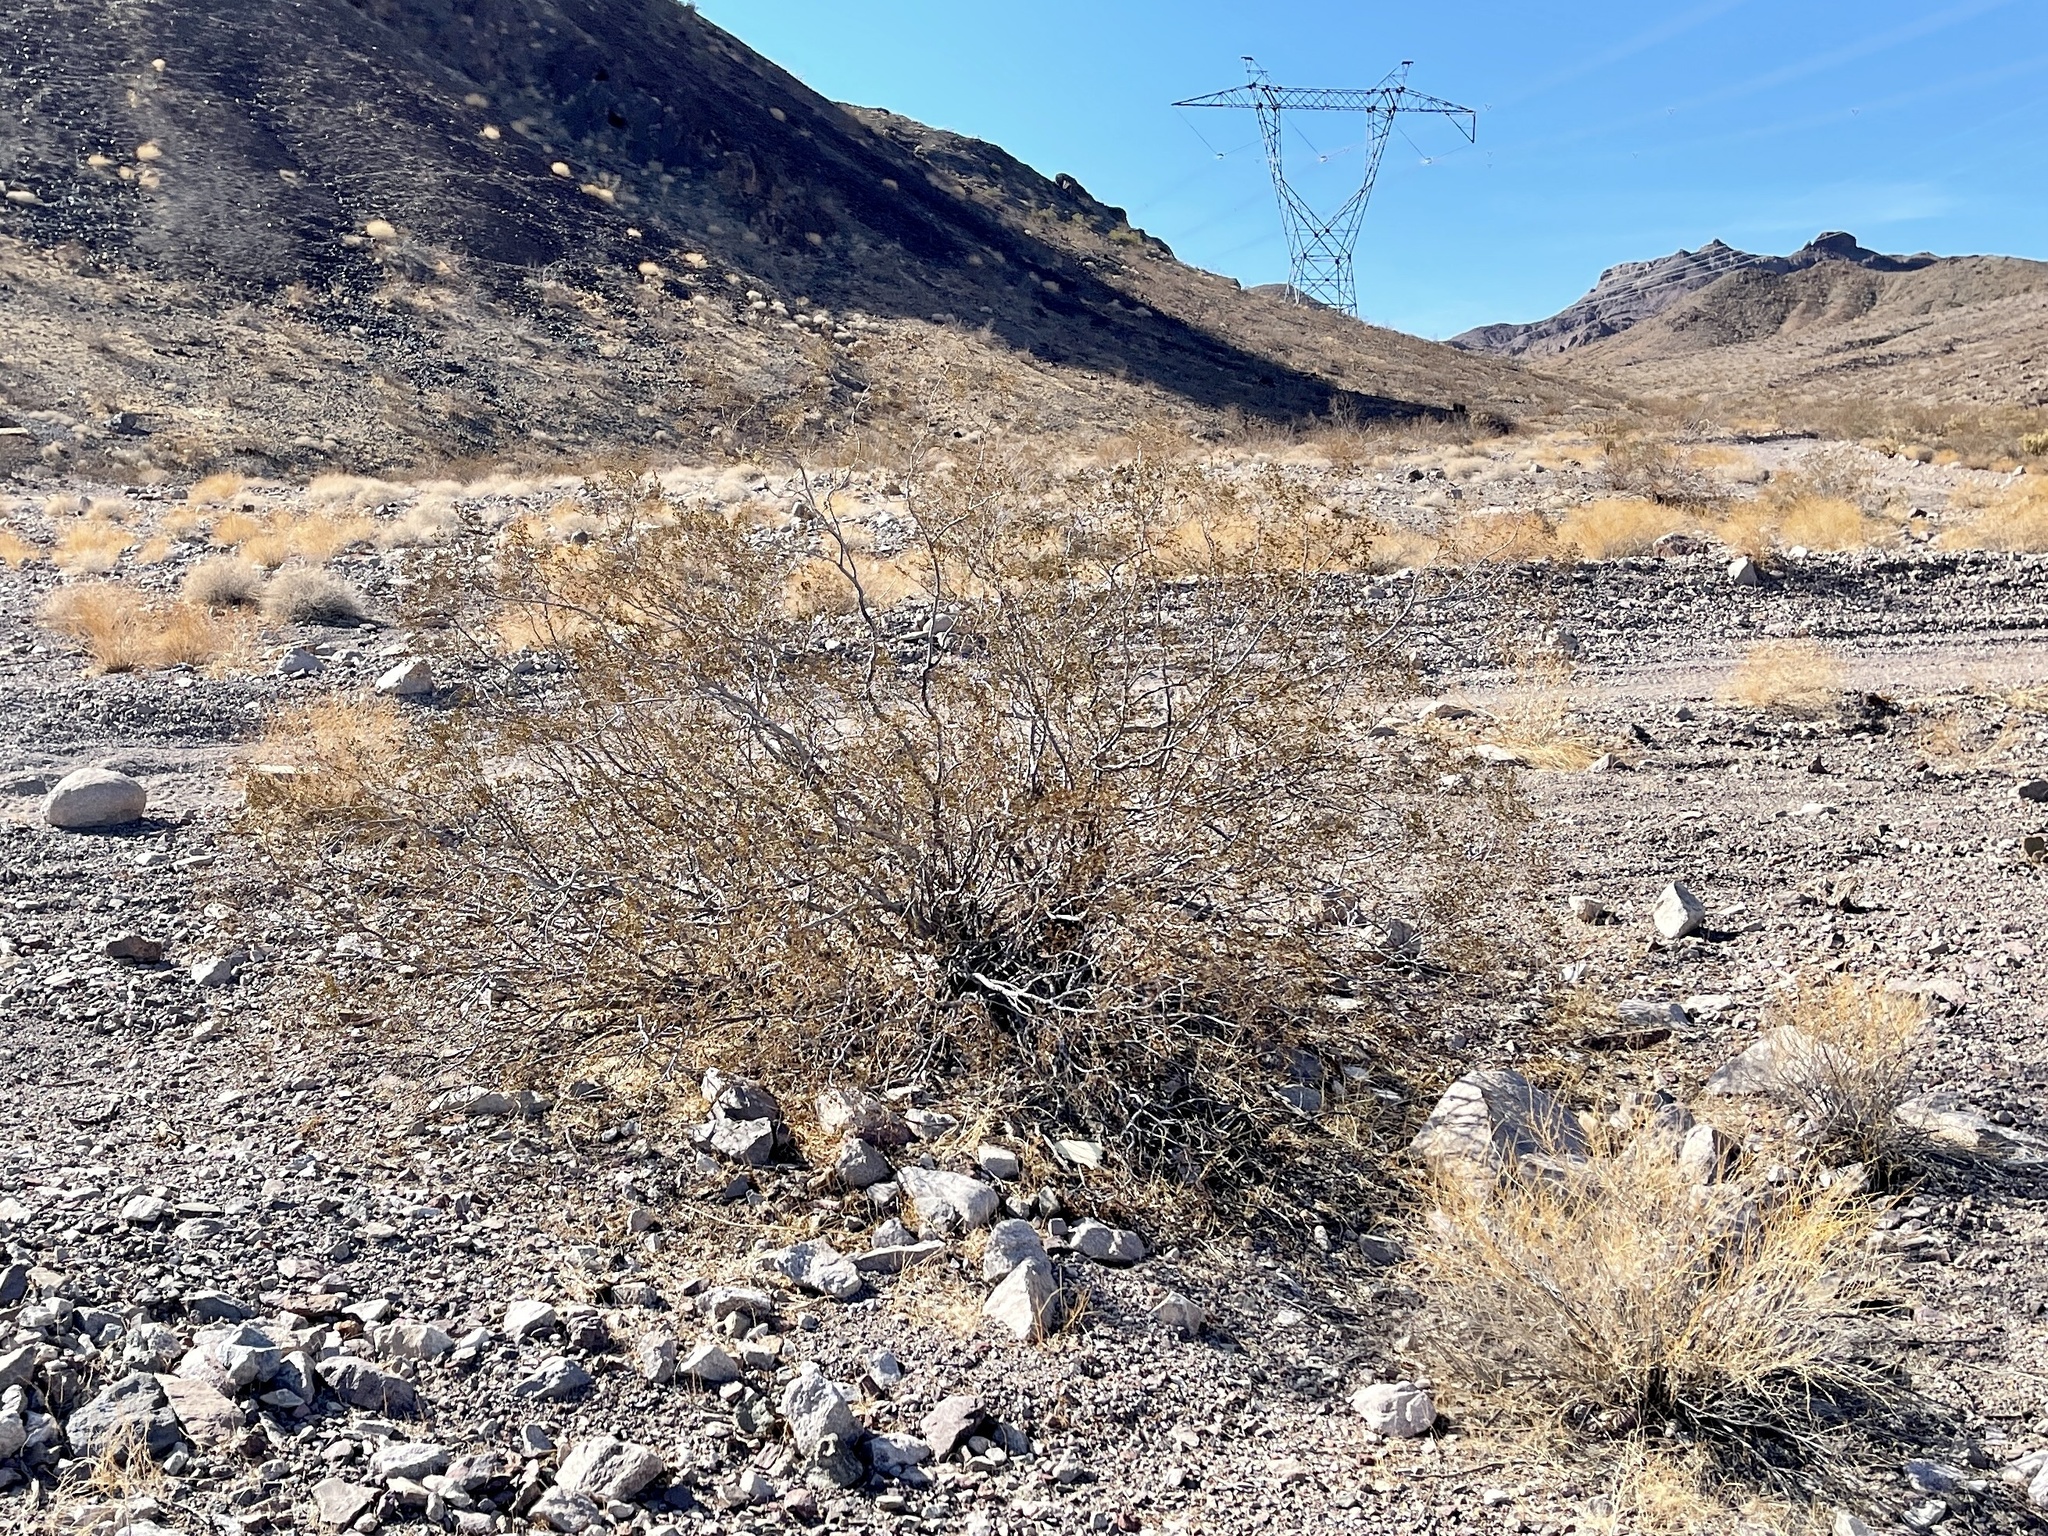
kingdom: Plantae
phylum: Tracheophyta
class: Magnoliopsida
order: Zygophyllales
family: Zygophyllaceae
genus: Larrea
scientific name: Larrea tridentata
